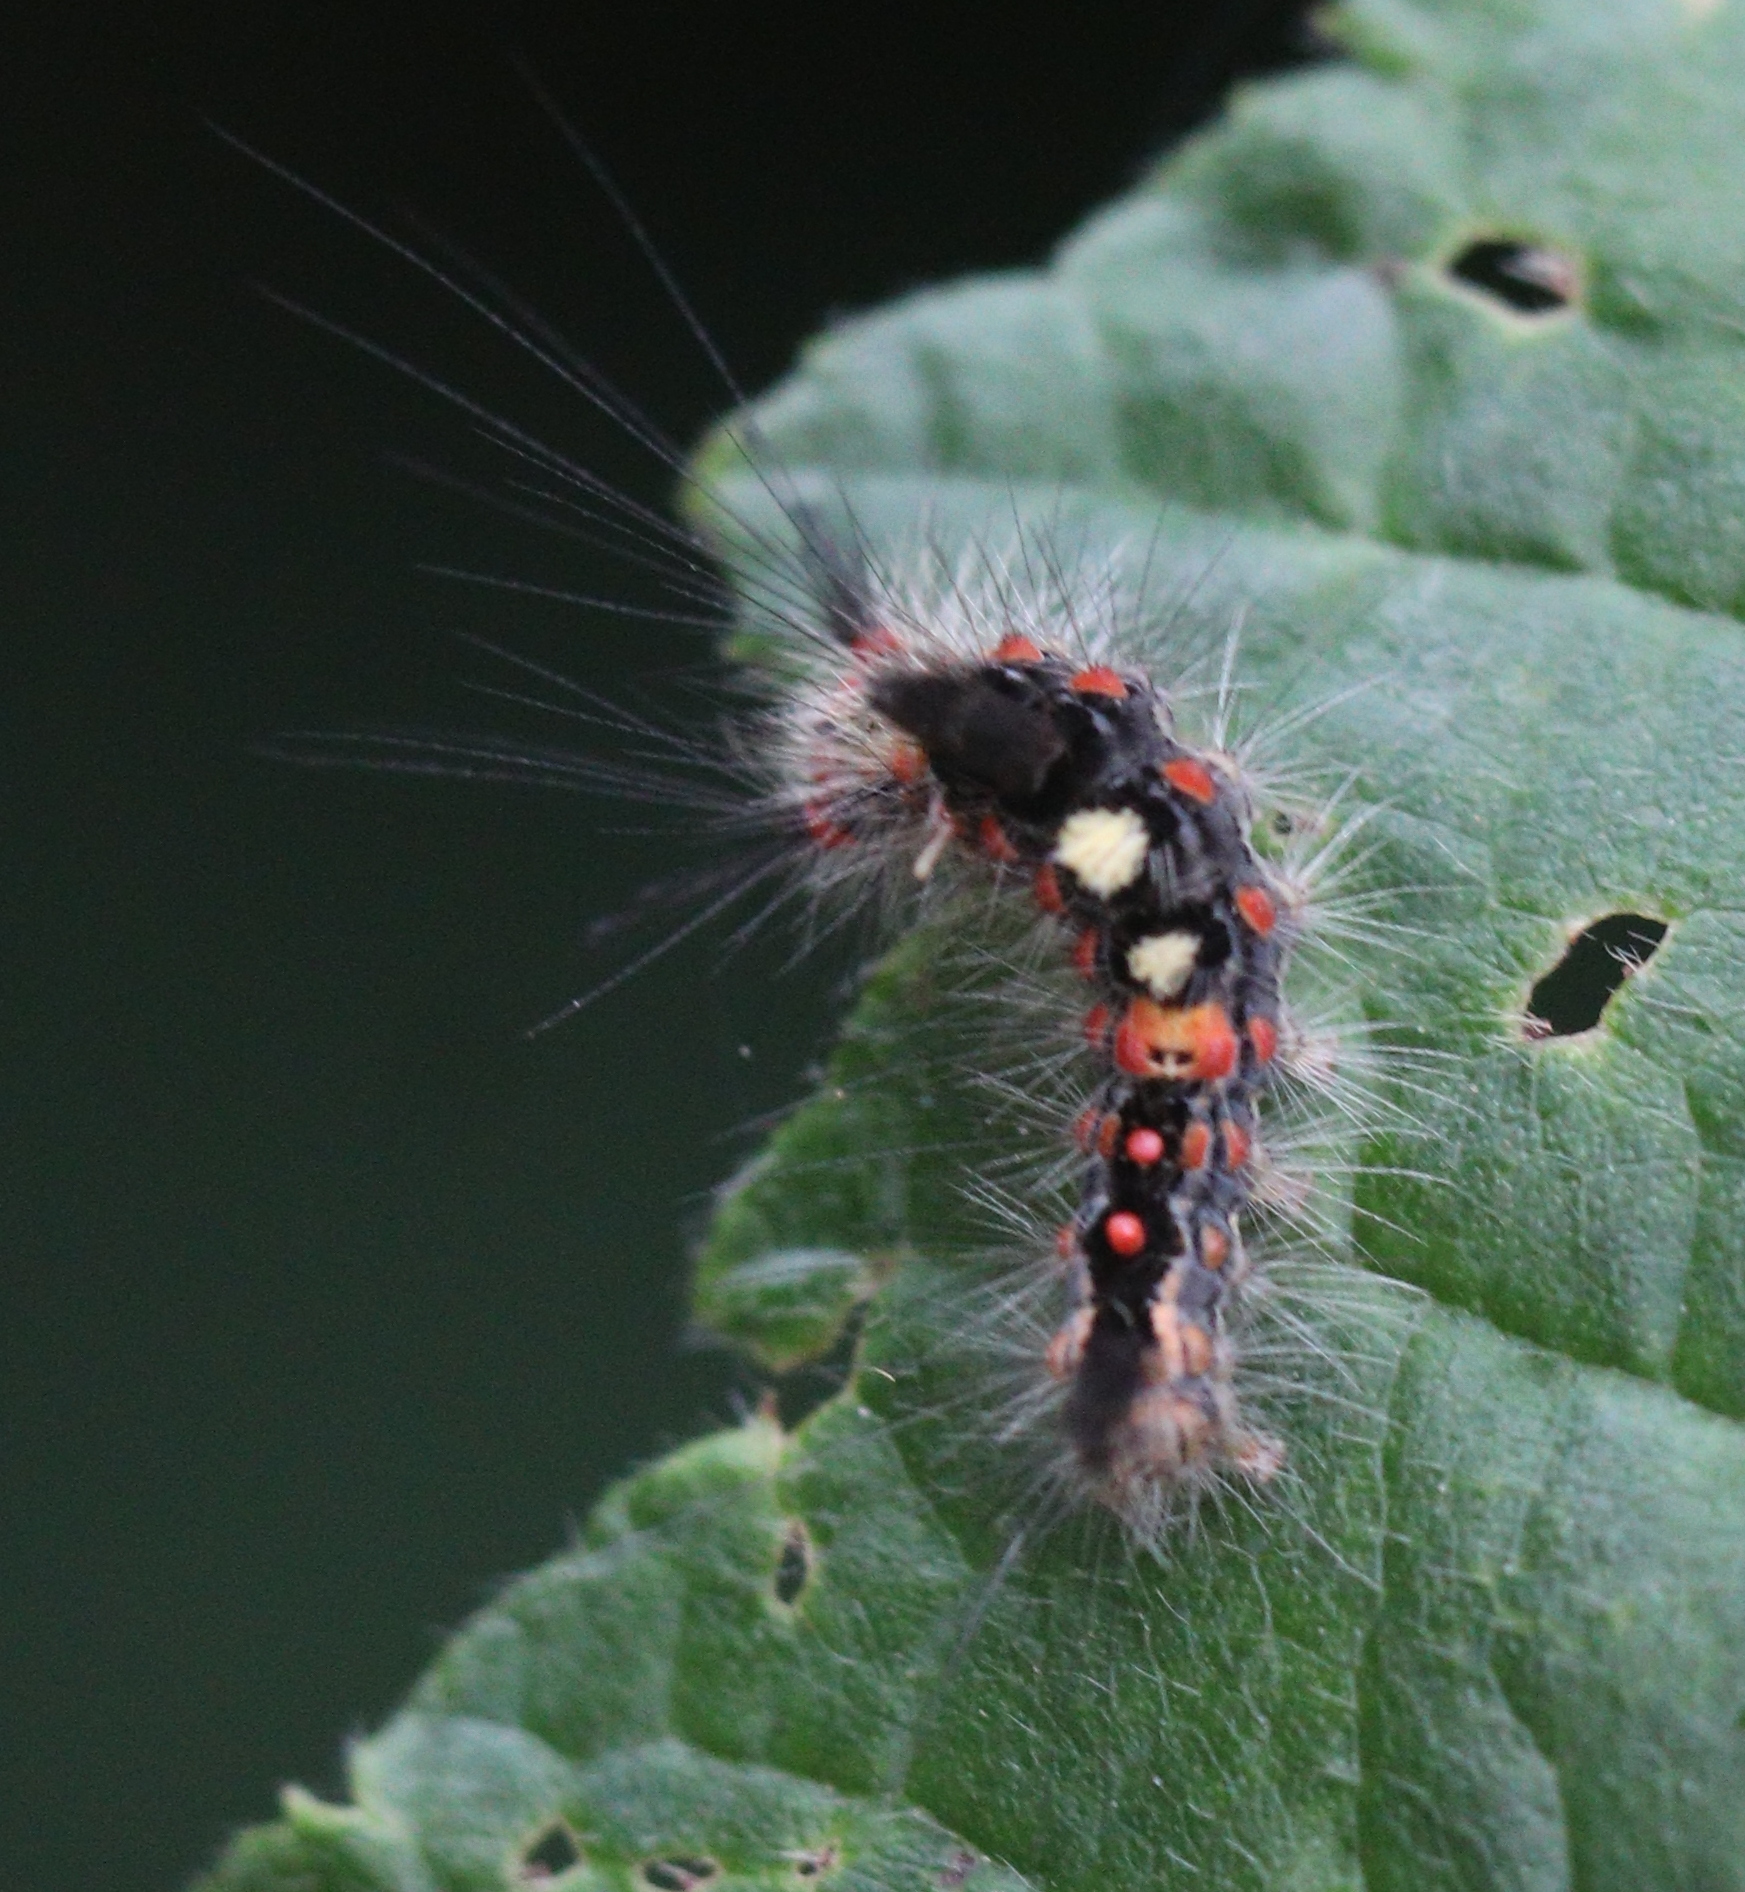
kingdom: Animalia
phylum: Arthropoda
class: Insecta
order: Lepidoptera
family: Erebidae
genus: Orgyia
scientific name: Orgyia antiqua
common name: Vapourer
